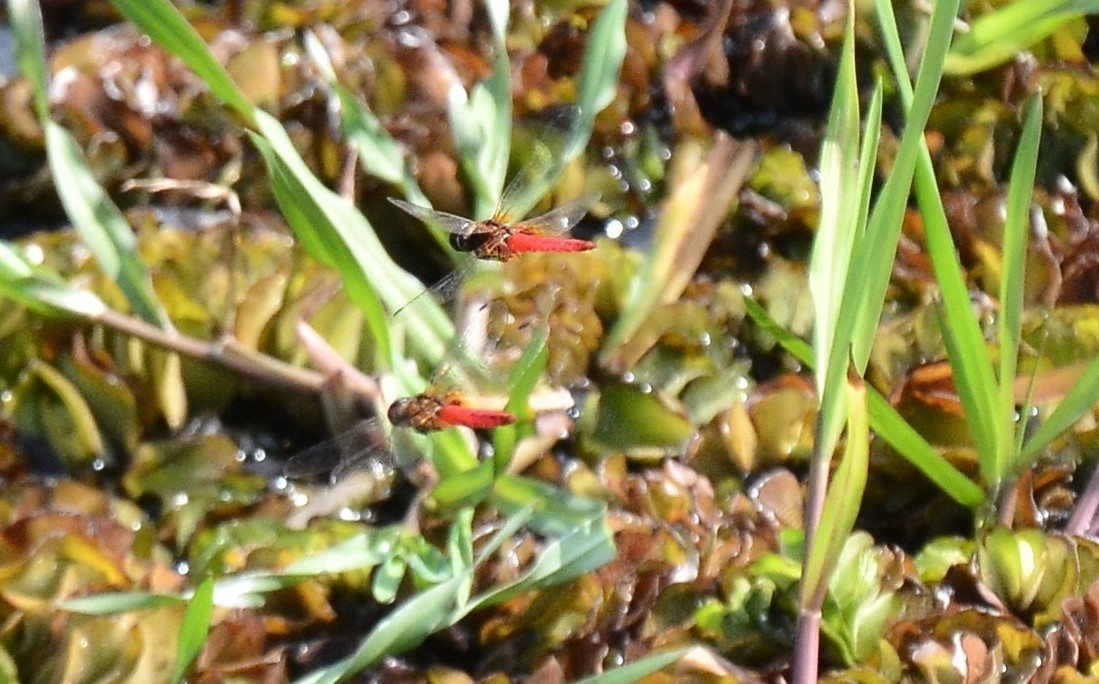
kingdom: Animalia
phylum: Arthropoda
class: Insecta
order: Odonata
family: Libellulidae
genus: Aethriamanta
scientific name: Aethriamanta brevipennis
